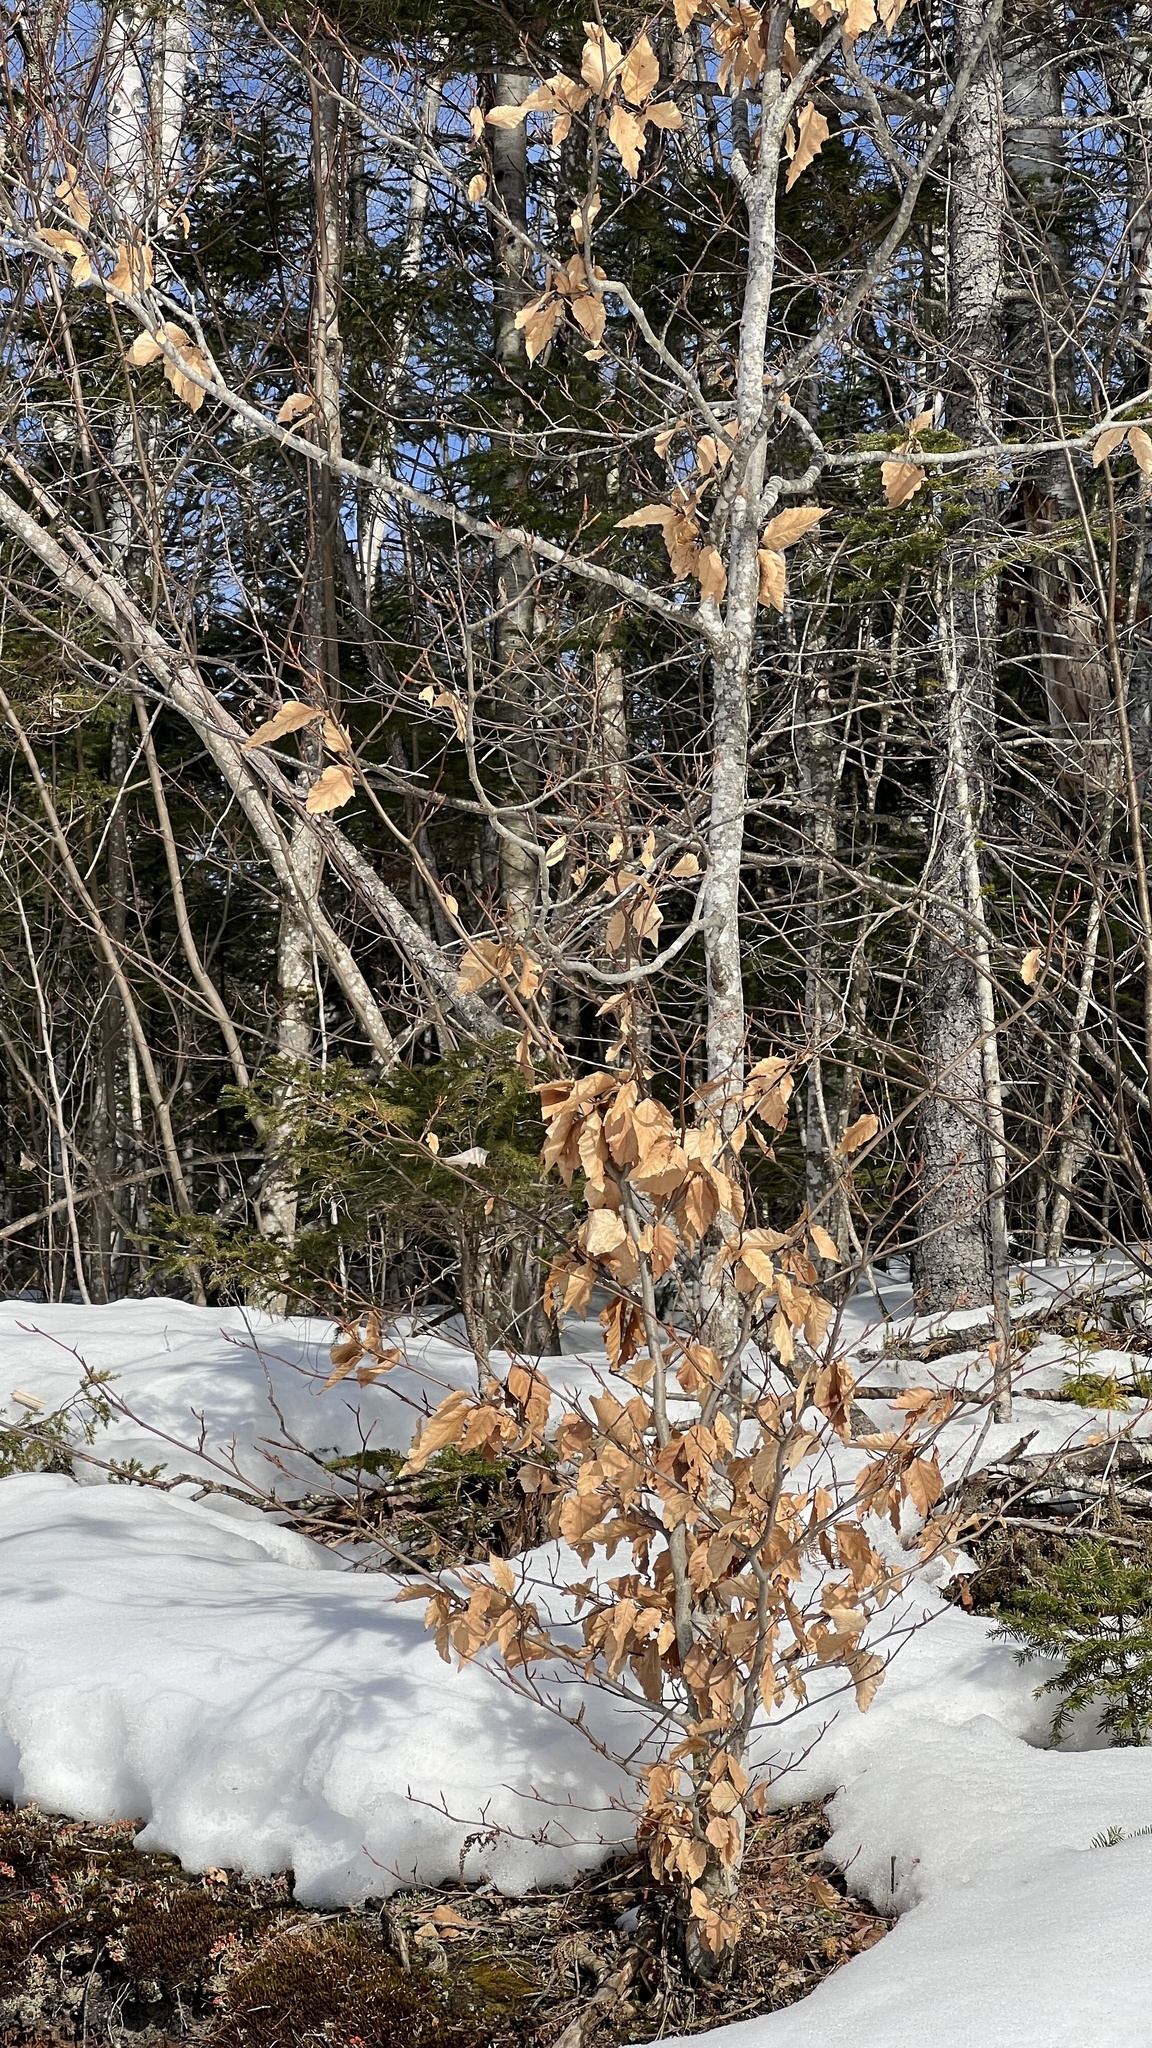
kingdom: Plantae
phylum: Tracheophyta
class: Magnoliopsida
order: Fagales
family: Fagaceae
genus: Fagus
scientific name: Fagus grandifolia
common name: American beech
